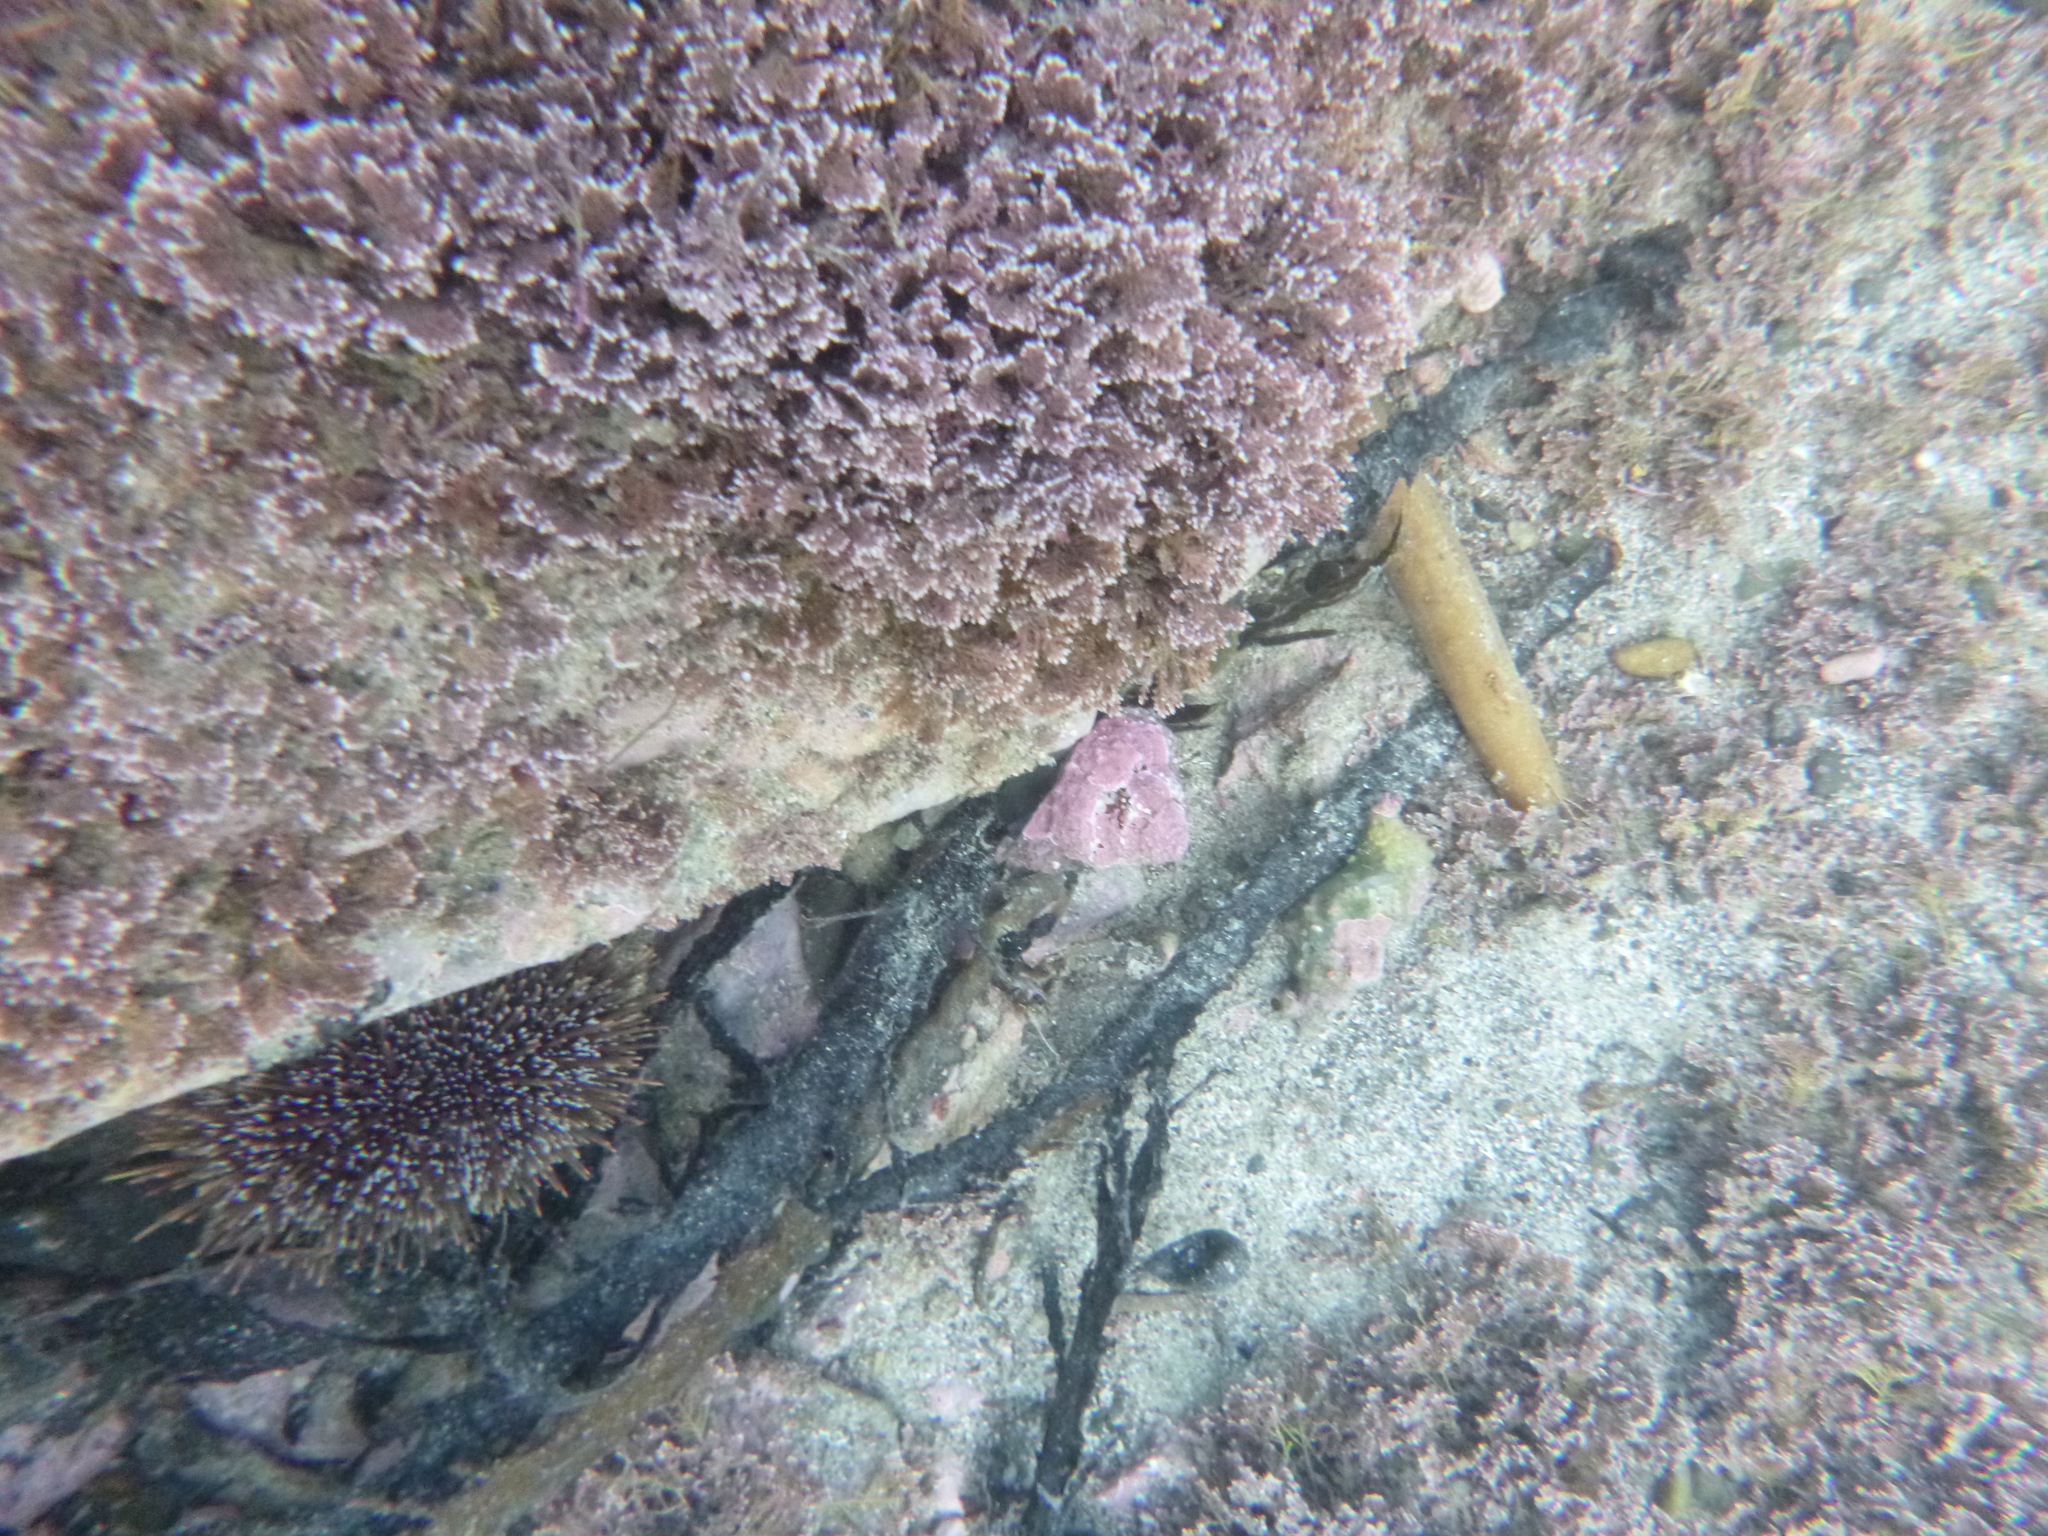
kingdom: Animalia
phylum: Mollusca
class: Gastropoda
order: Trochida
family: Turbinidae
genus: Cookia
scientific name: Cookia sulcata
